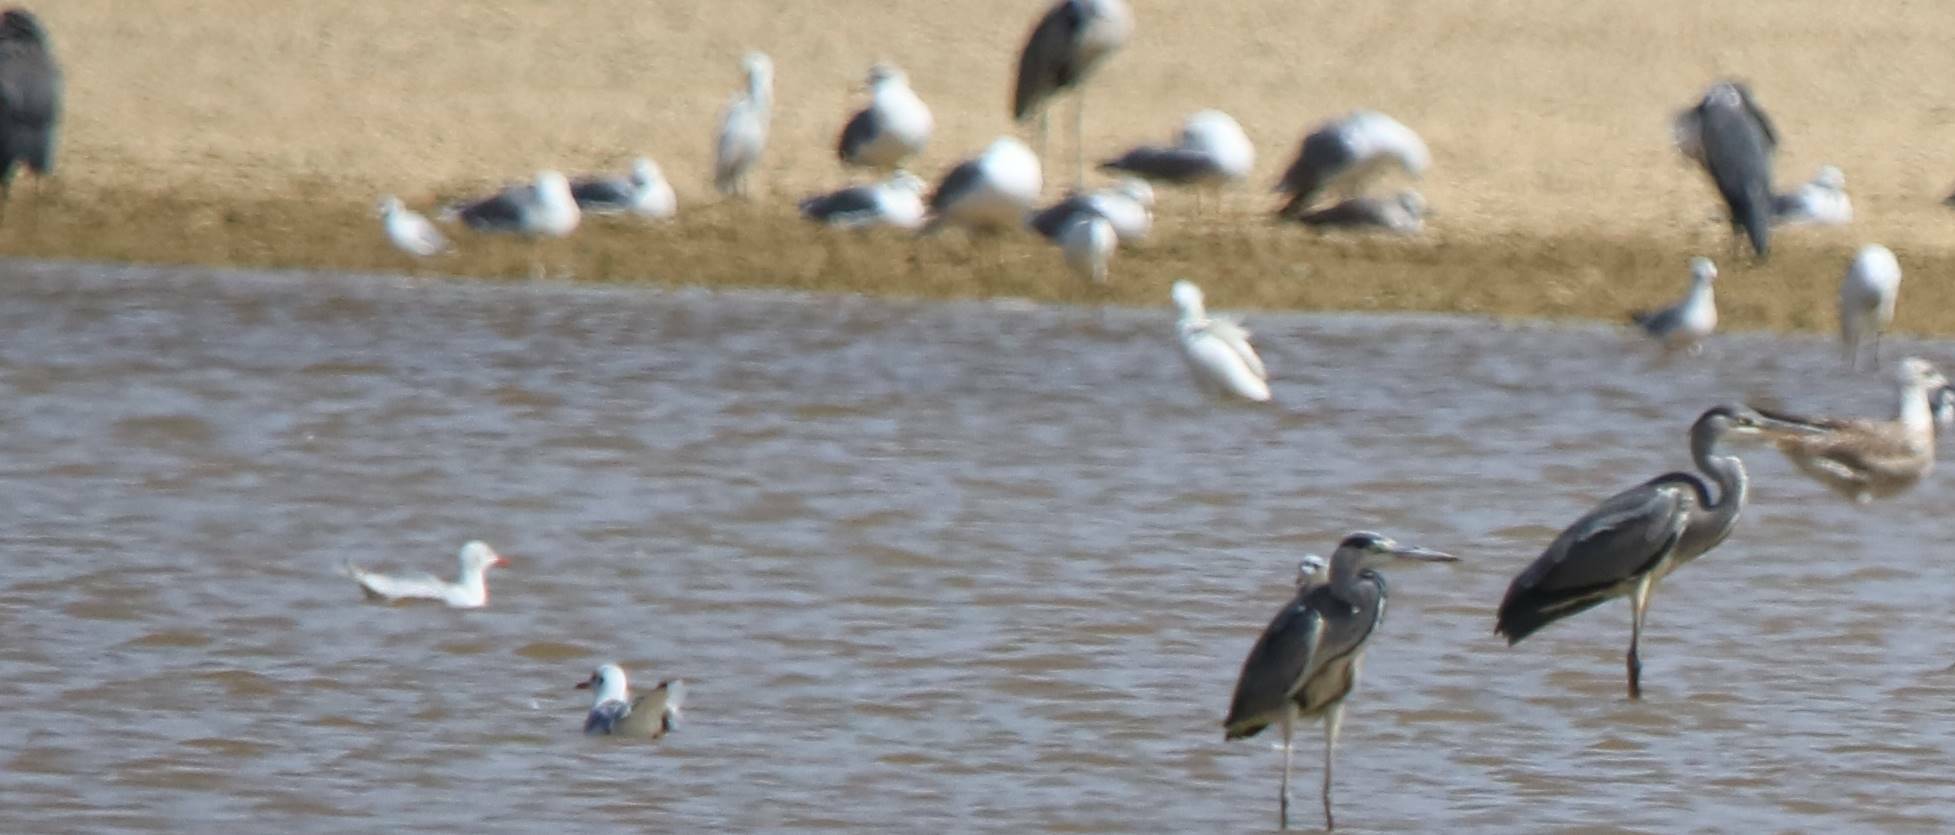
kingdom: Animalia
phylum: Chordata
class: Aves
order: Pelecaniformes
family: Ardeidae
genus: Ardea
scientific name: Ardea cinerea
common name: Grey heron
